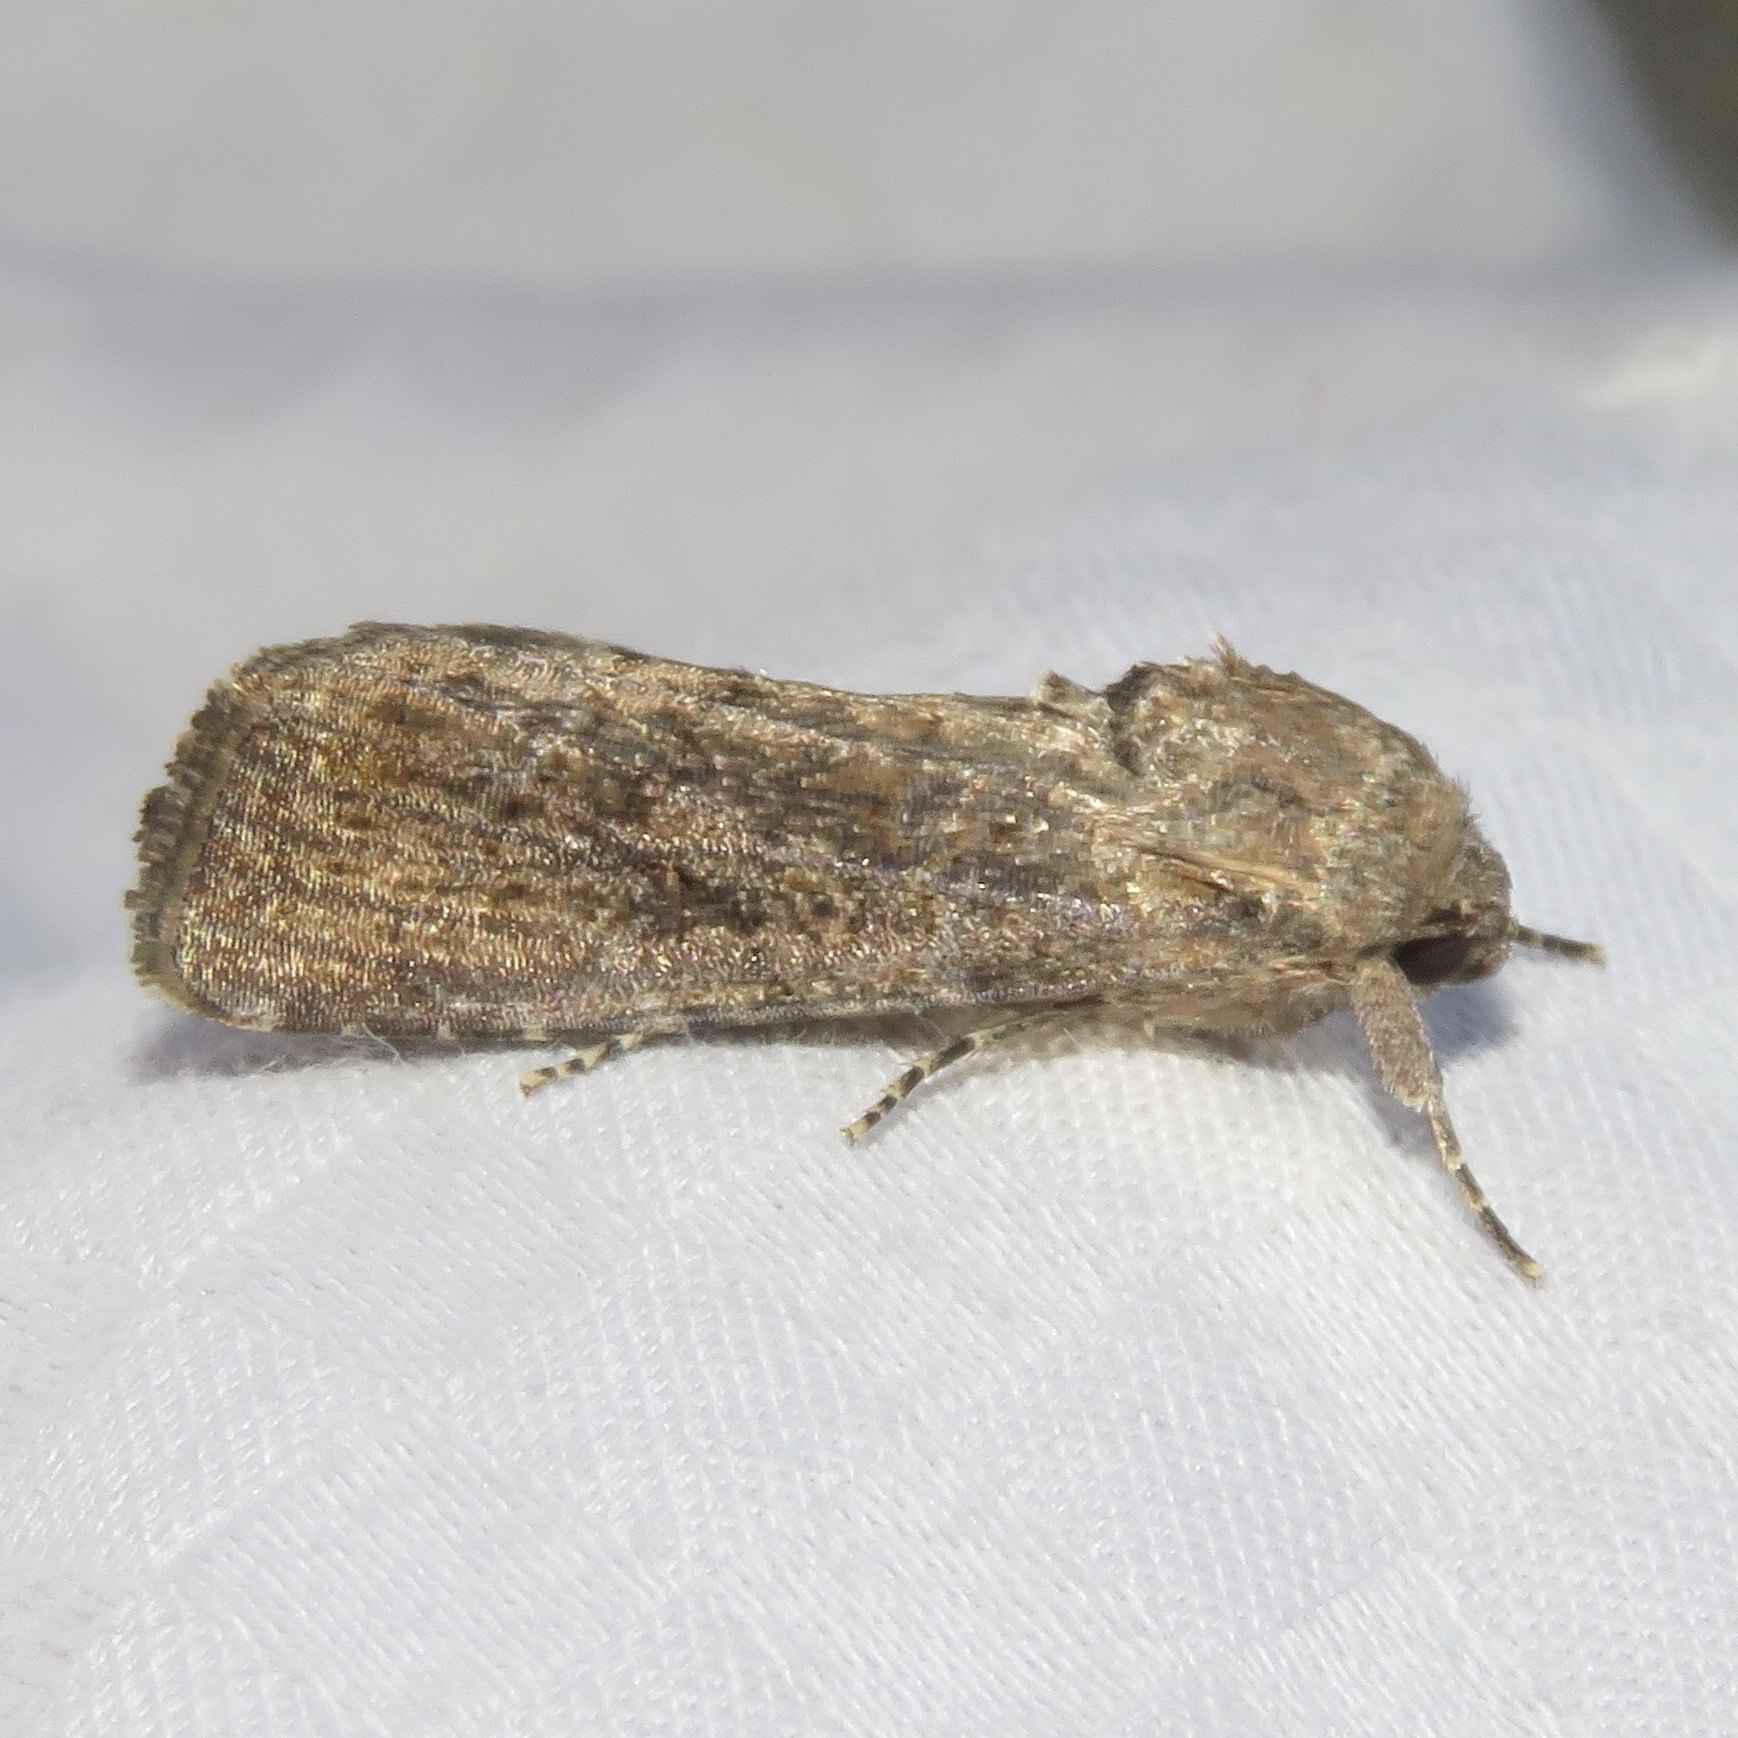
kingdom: Animalia
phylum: Arthropoda
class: Insecta
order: Lepidoptera
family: Noctuidae
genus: Spodoptera
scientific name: Spodoptera frugiperda
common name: Fall armyworm
